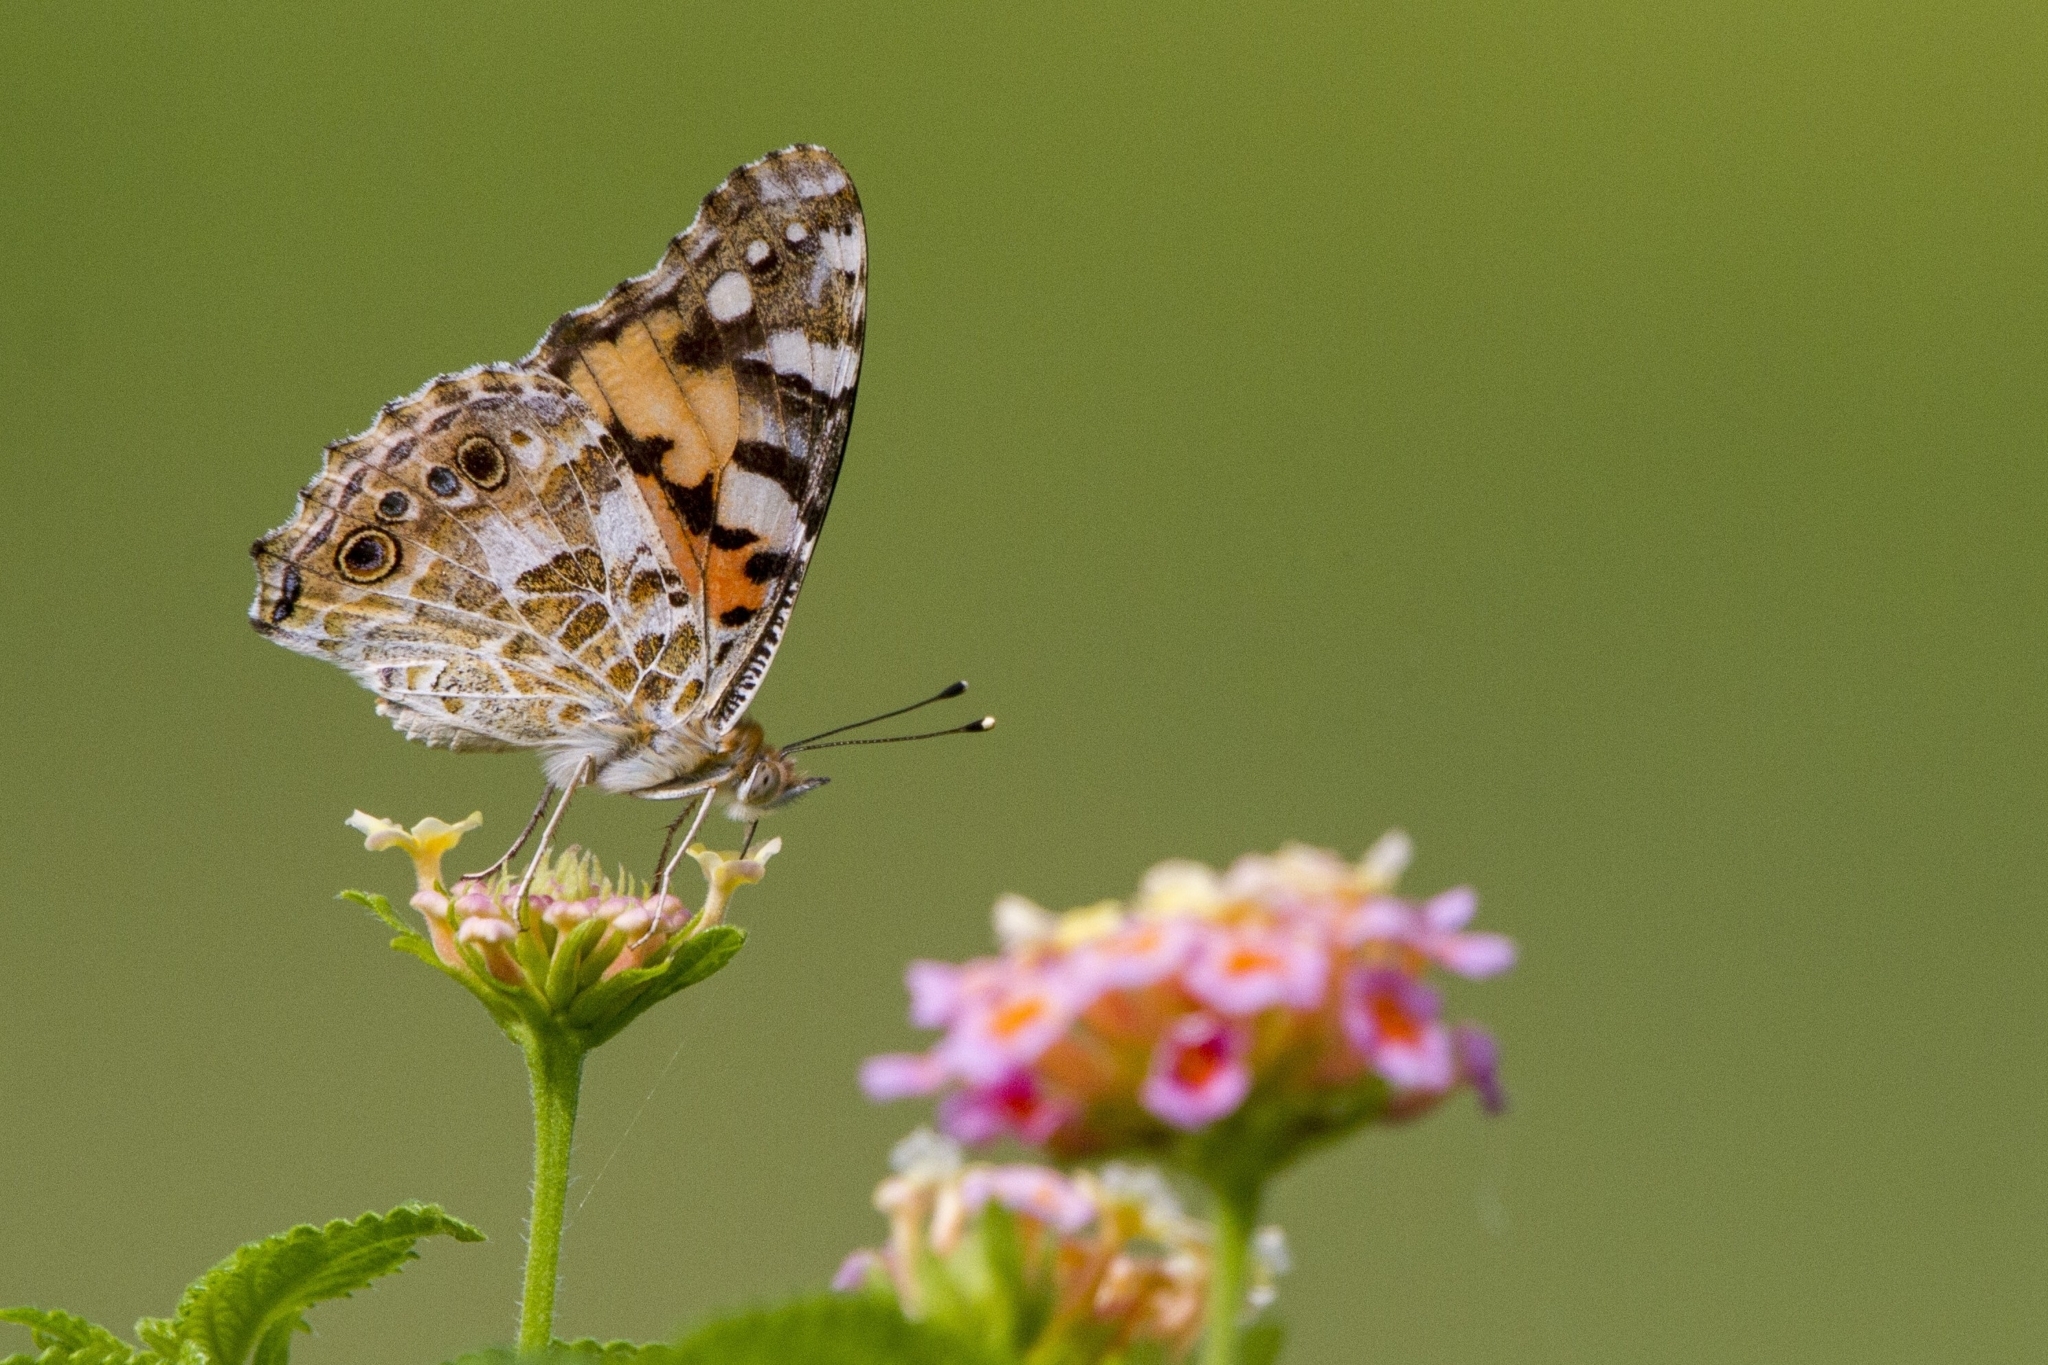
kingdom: Animalia
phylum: Arthropoda
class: Insecta
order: Lepidoptera
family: Nymphalidae
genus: Vanessa
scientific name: Vanessa cardui
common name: Painted lady
